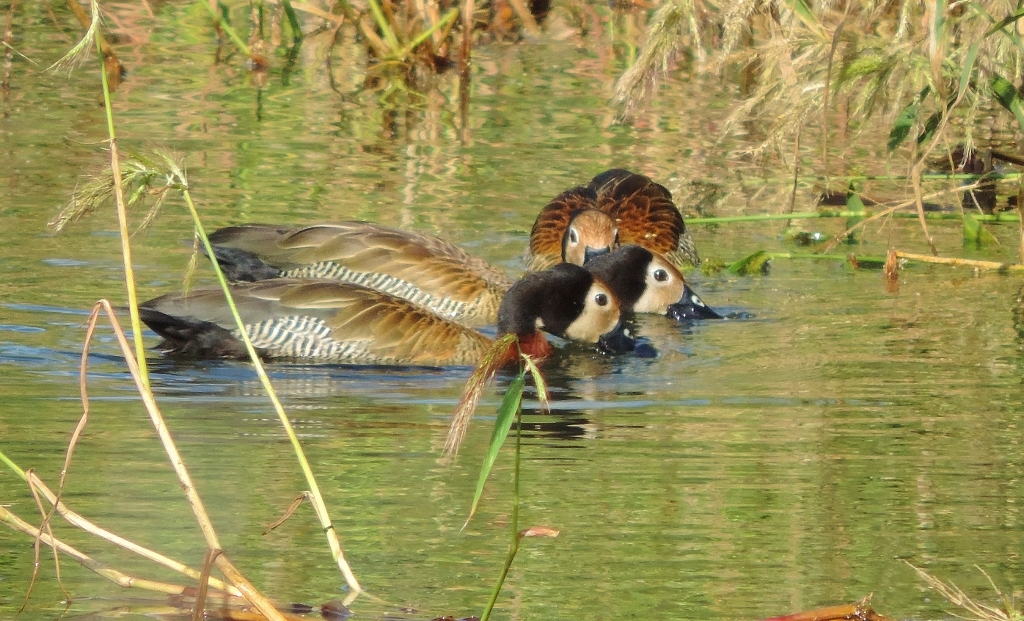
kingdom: Animalia
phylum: Chordata
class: Aves
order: Anseriformes
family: Anatidae
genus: Dendrocygna
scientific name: Dendrocygna viduata
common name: White-faced whistling duck
